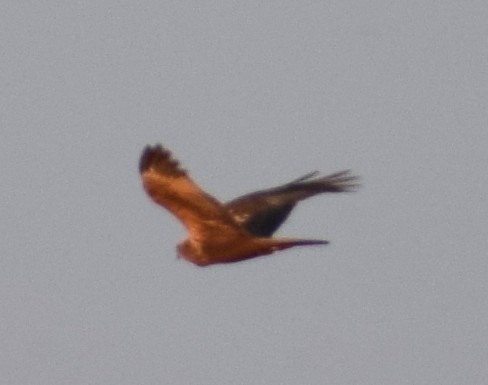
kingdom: Animalia
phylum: Chordata
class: Aves
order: Accipitriformes
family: Accipitridae
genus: Circus
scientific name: Circus aeruginosus
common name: Western marsh harrier
